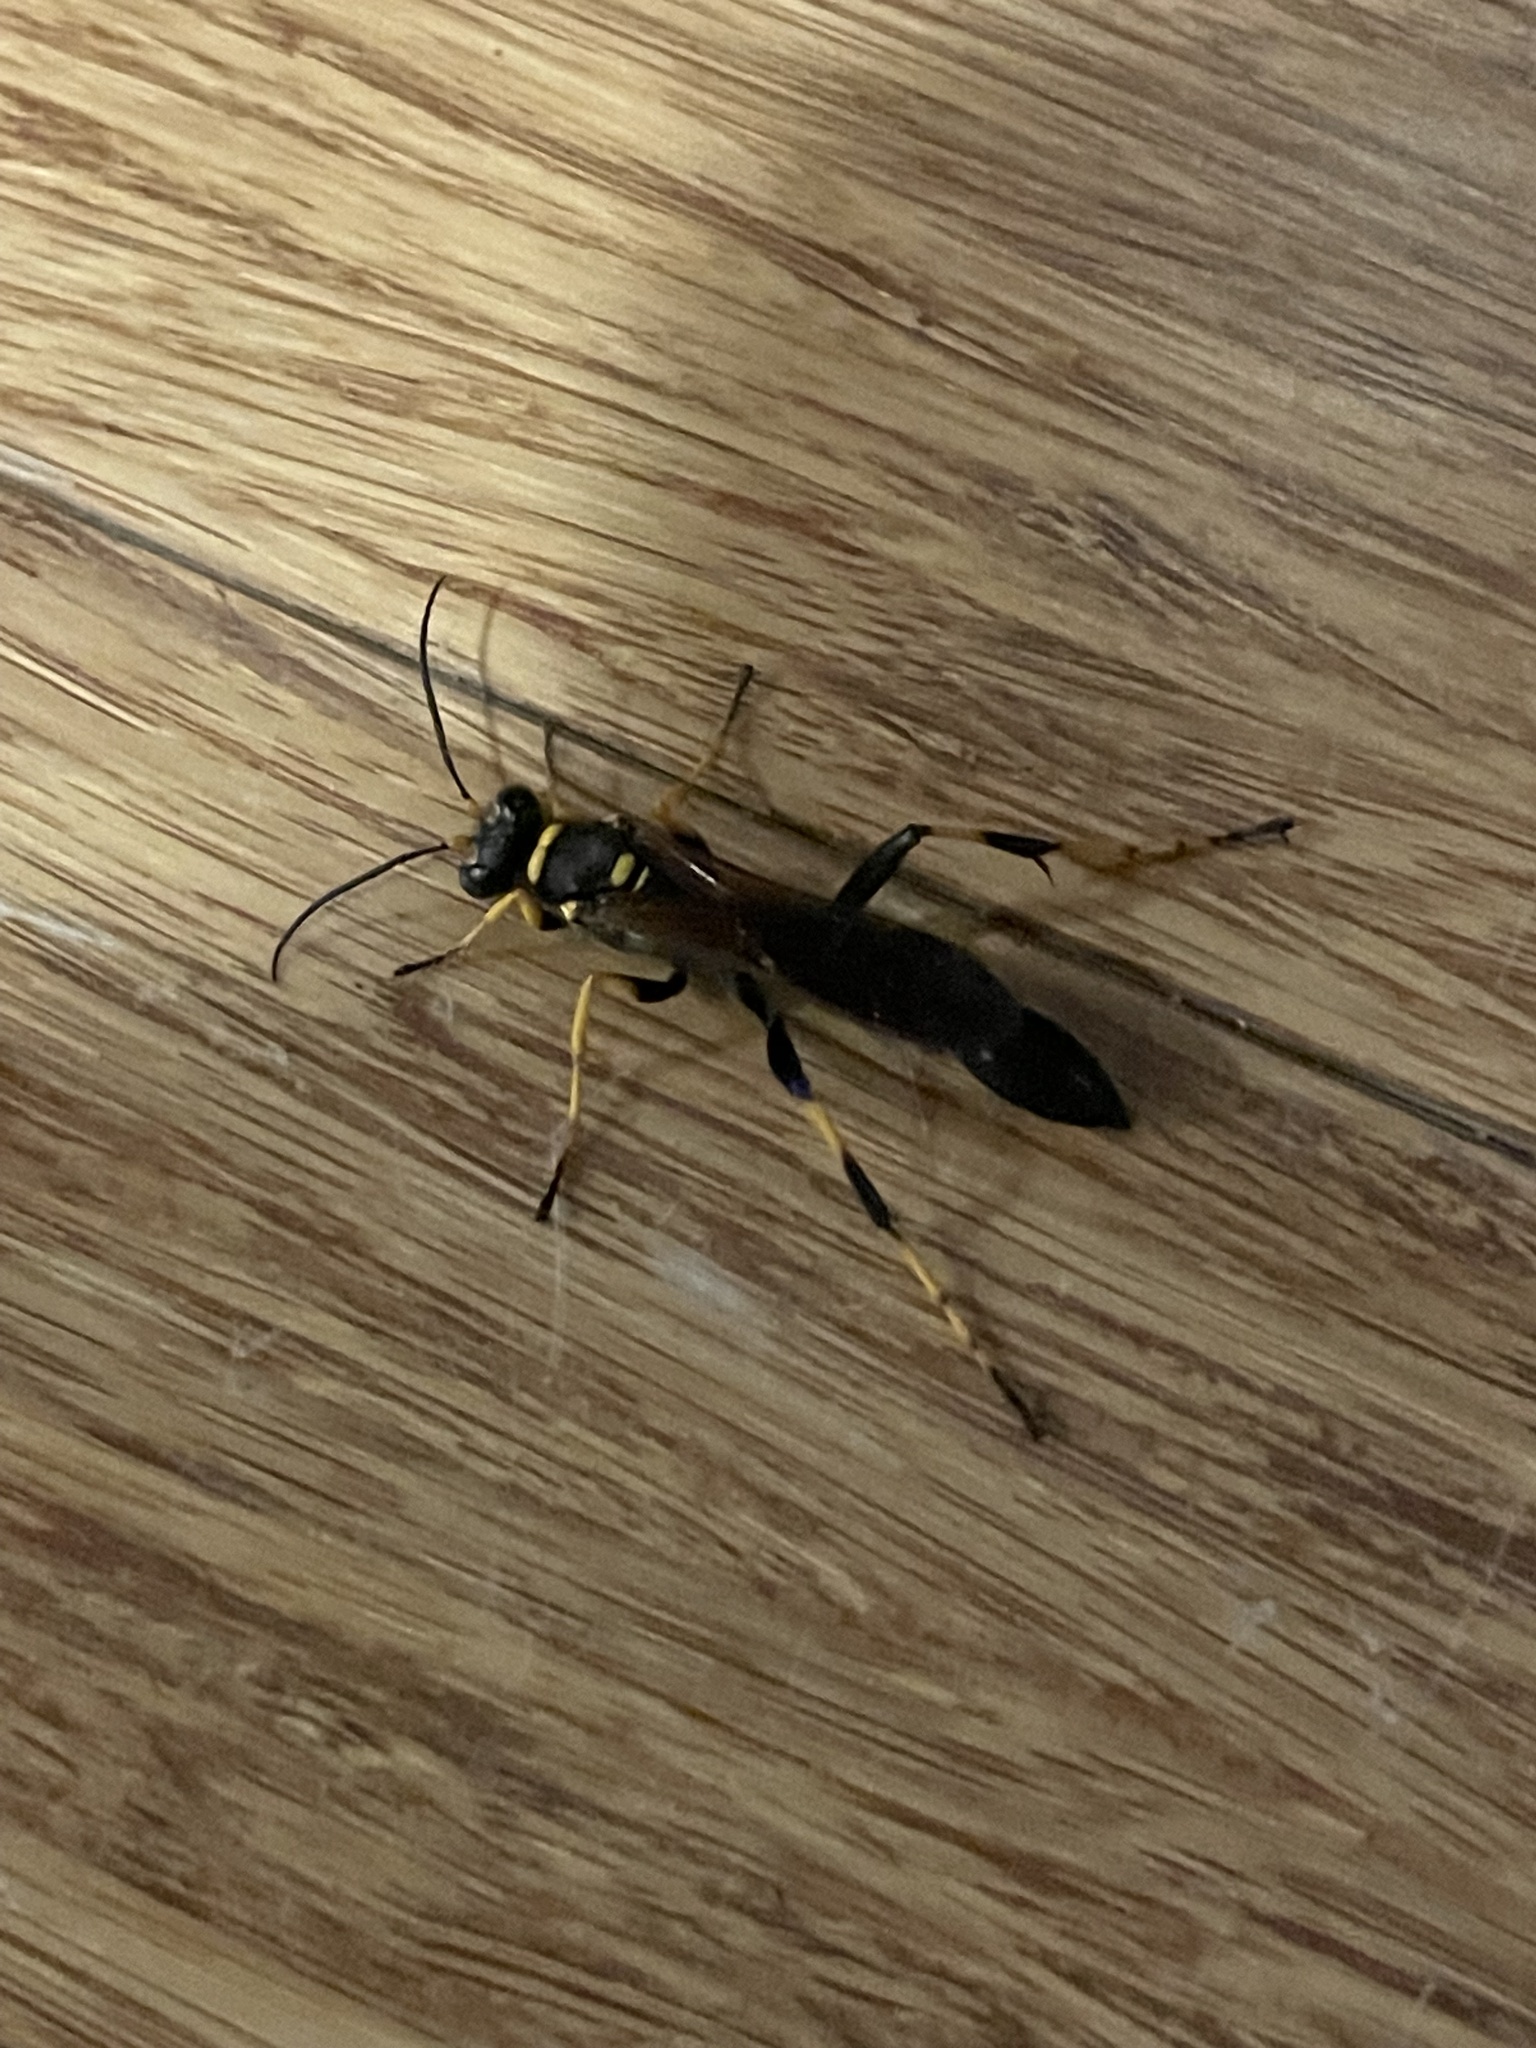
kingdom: Animalia
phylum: Arthropoda
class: Insecta
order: Hymenoptera
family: Sphecidae
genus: Sceliphron
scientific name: Sceliphron caementarium
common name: Mud dauber
